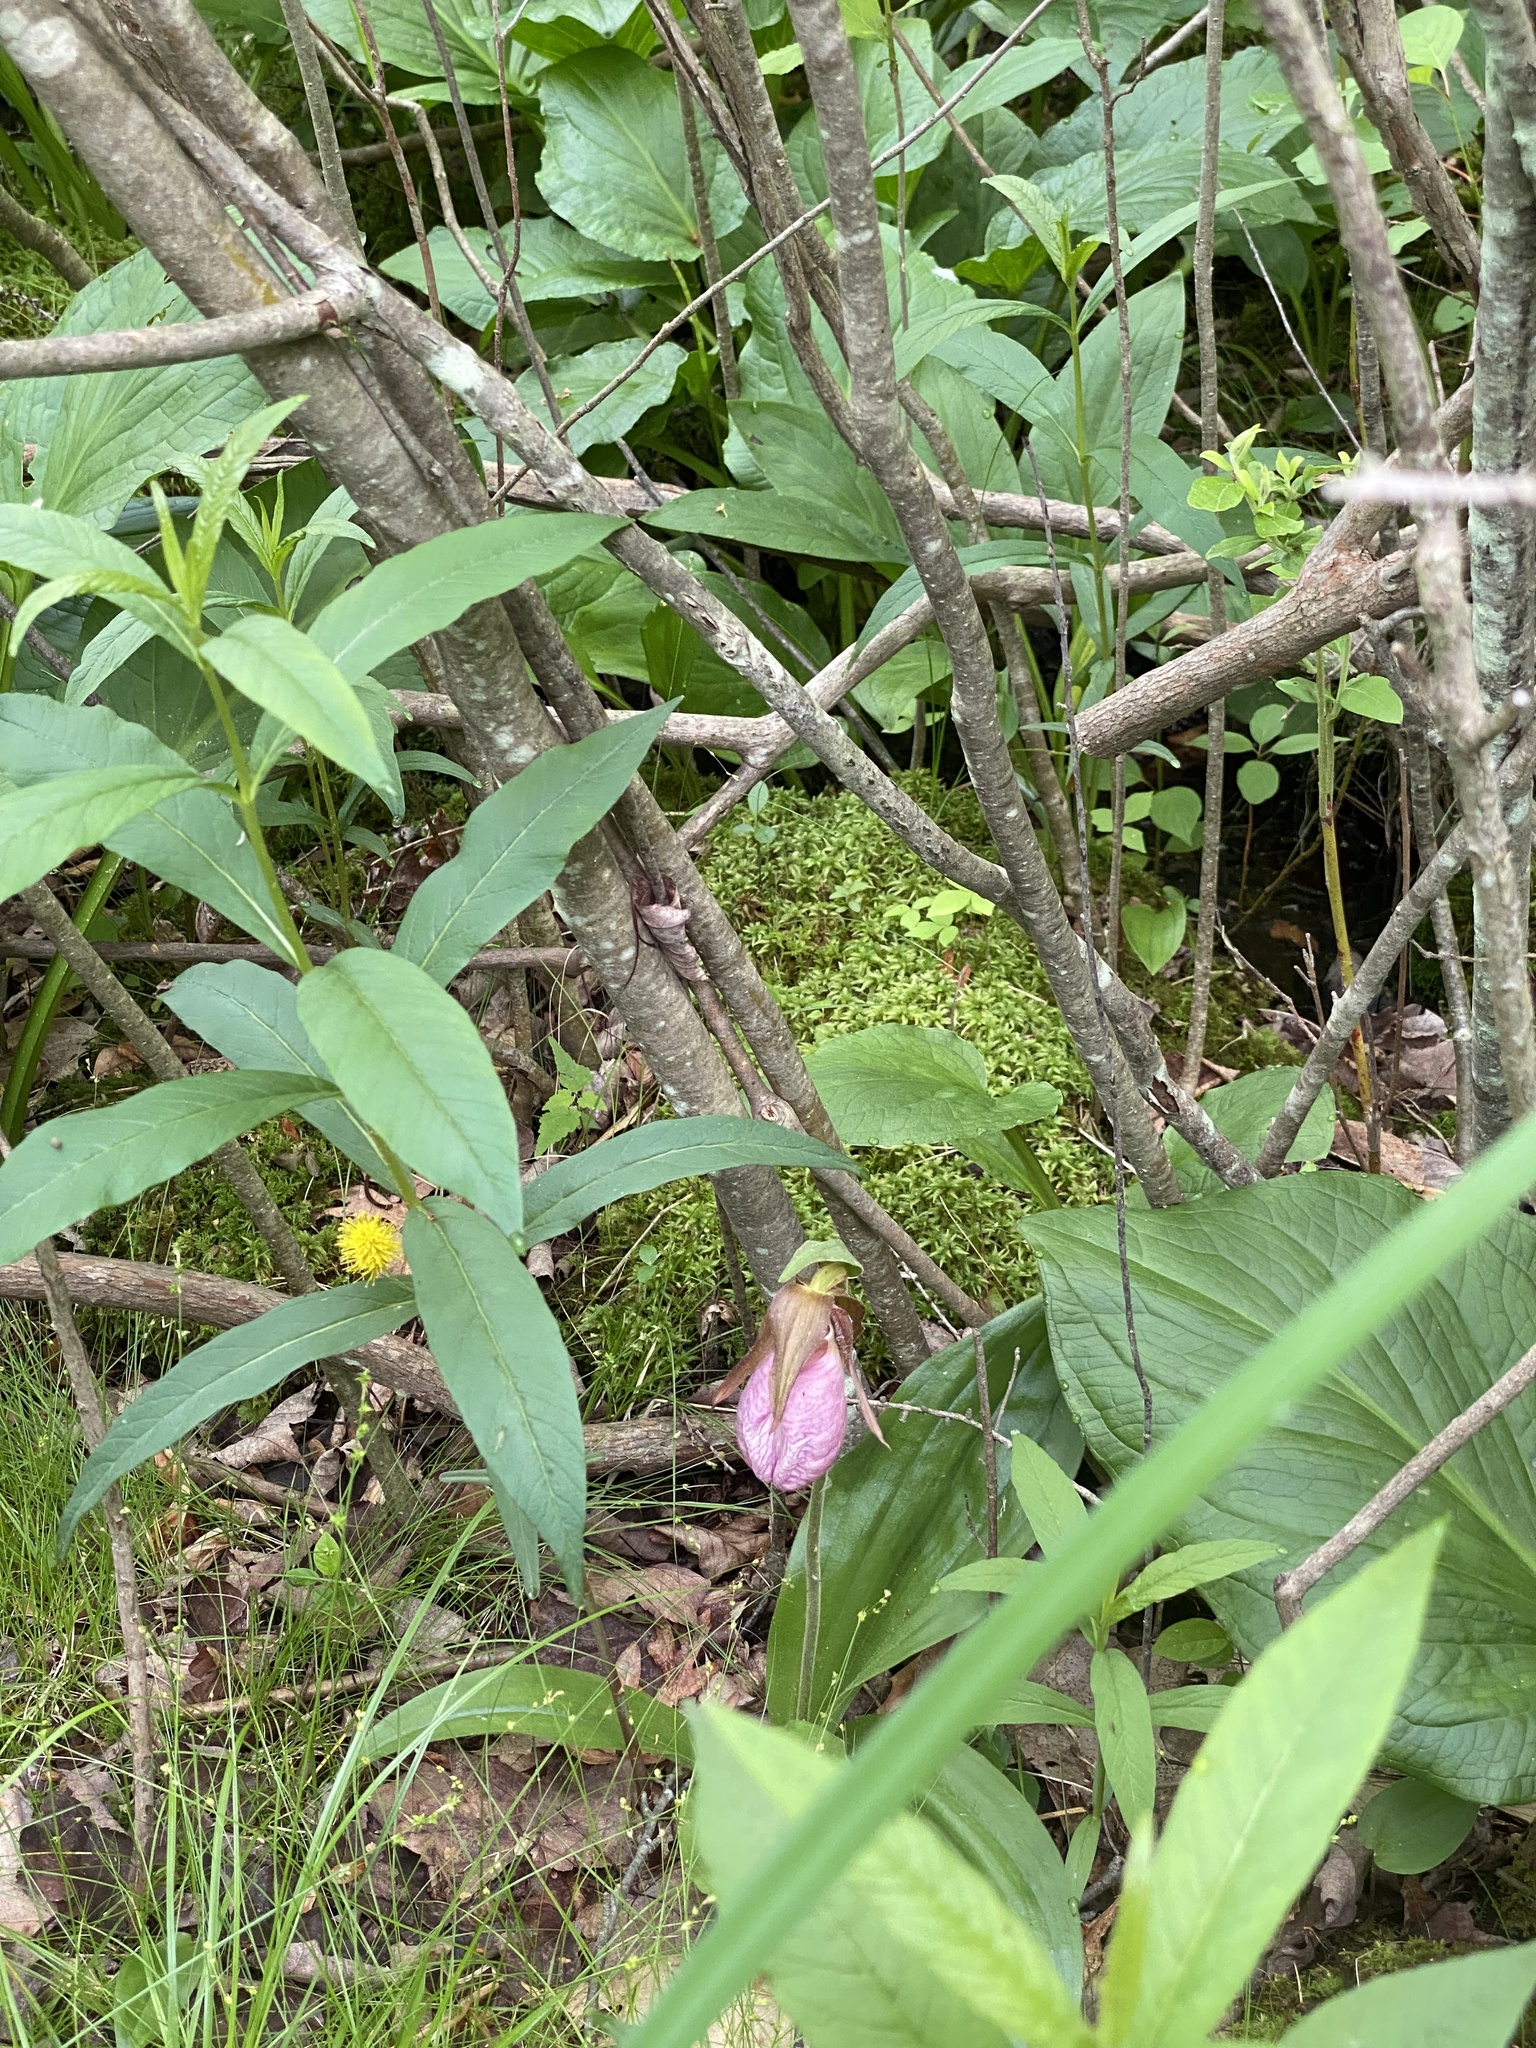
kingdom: Plantae
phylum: Tracheophyta
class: Liliopsida
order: Asparagales
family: Orchidaceae
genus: Cypripedium
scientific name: Cypripedium acaule
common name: Pink lady's-slipper
